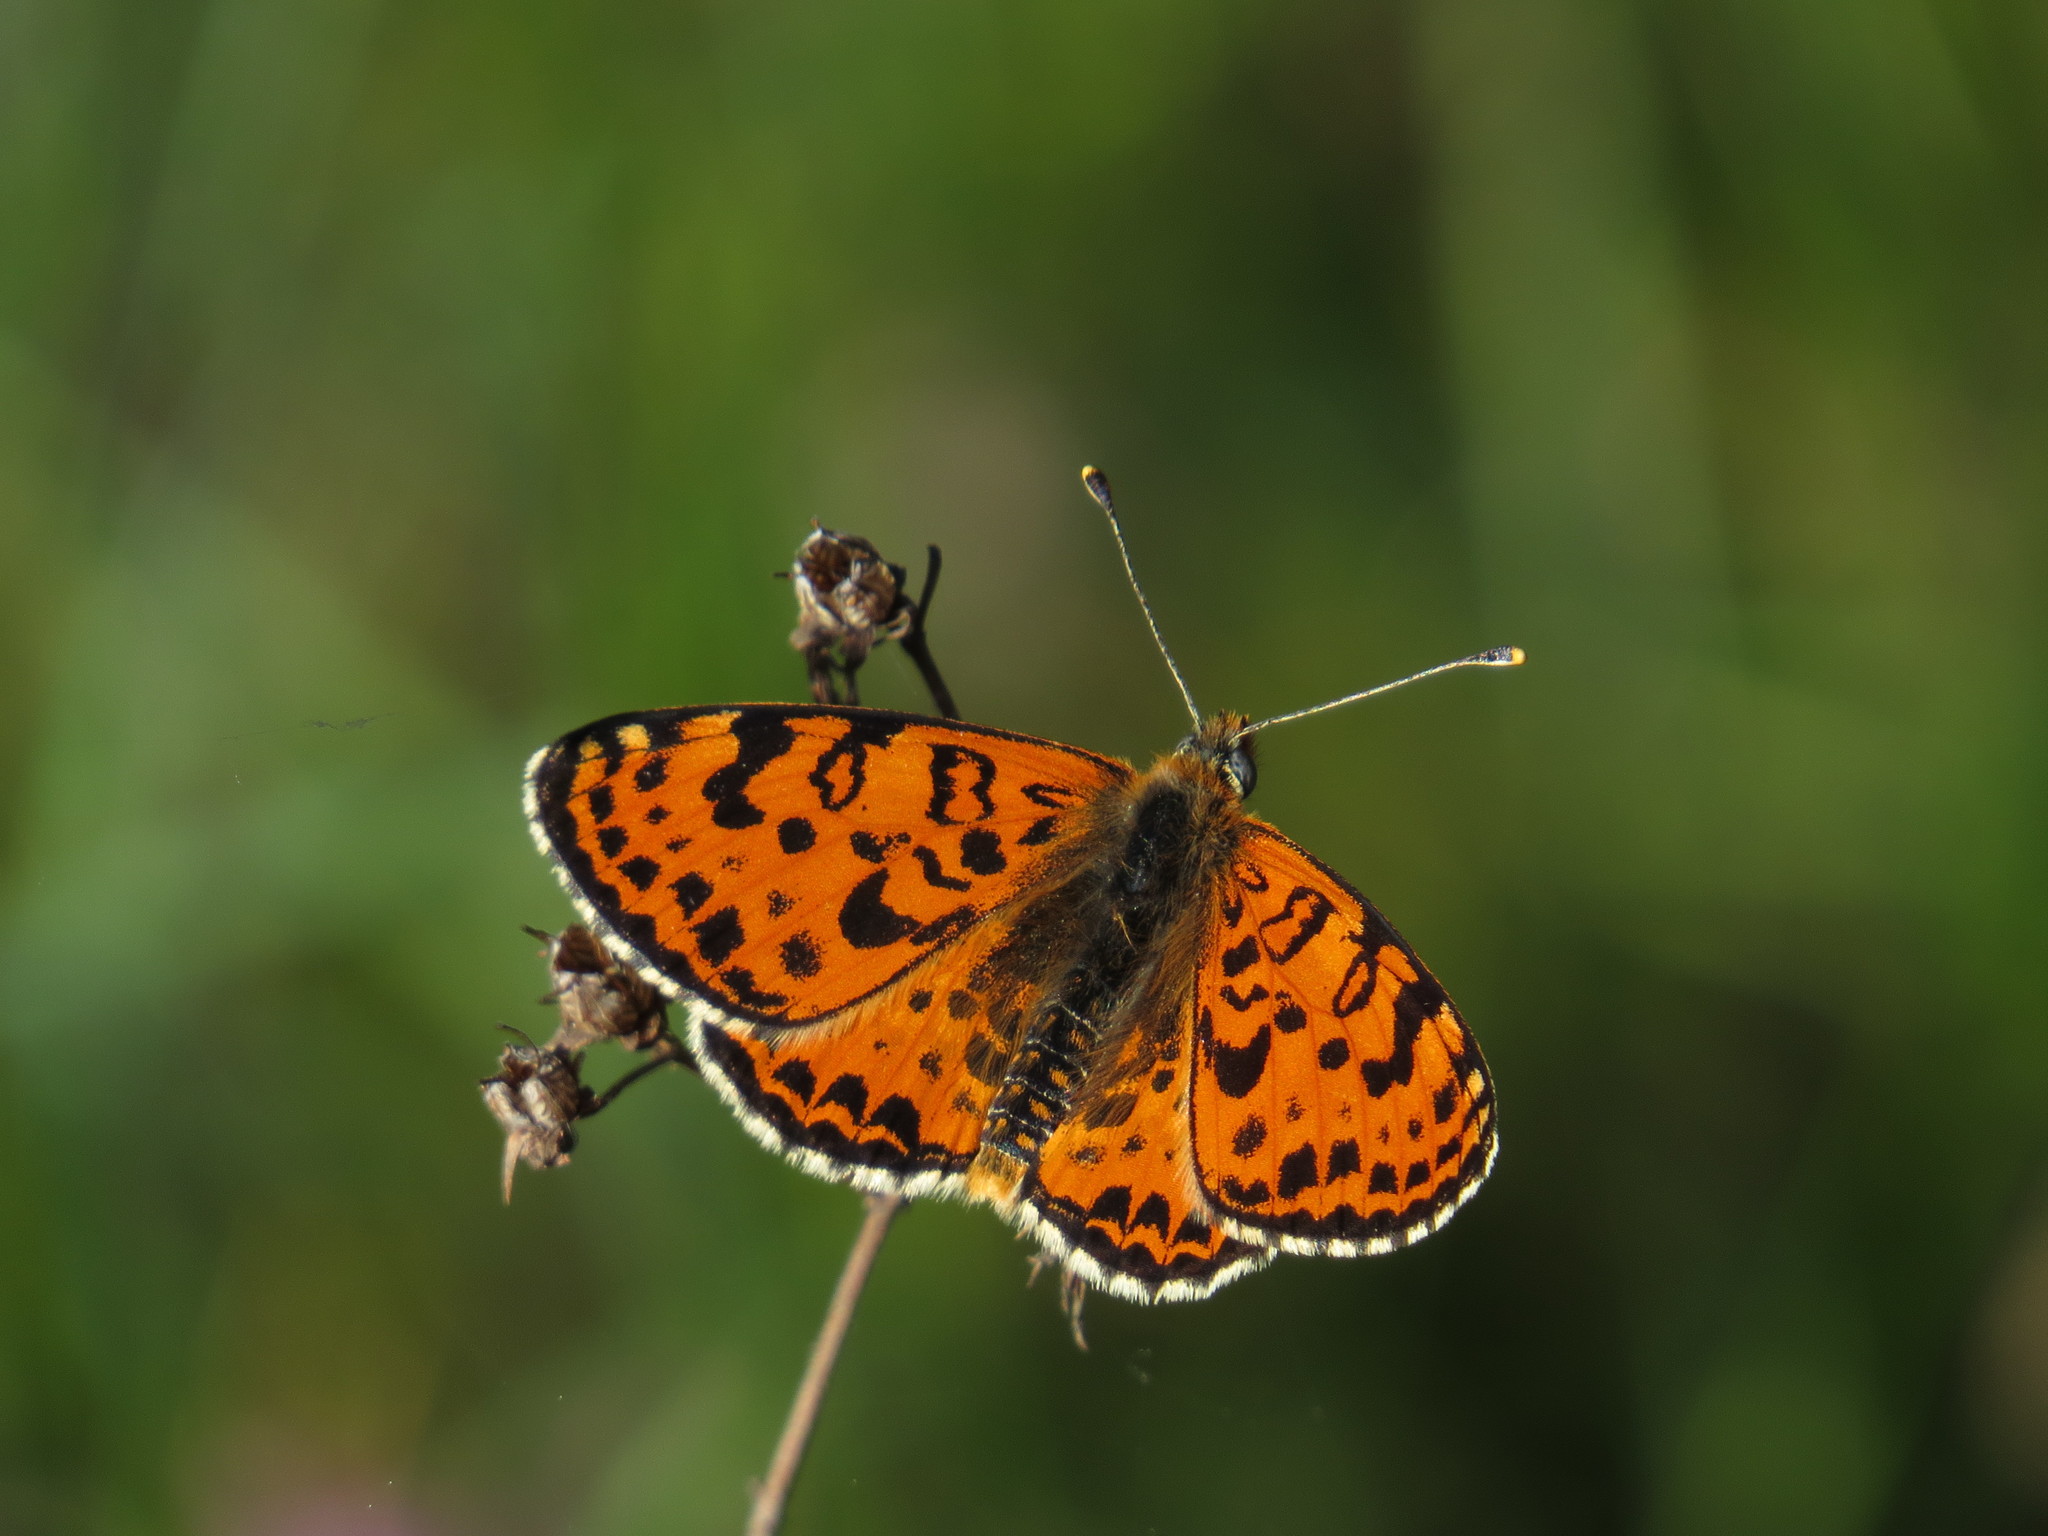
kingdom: Animalia
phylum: Arthropoda
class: Insecta
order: Lepidoptera
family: Nymphalidae
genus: Melitaea
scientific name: Melitaea didyma
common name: Spotted fritillary
